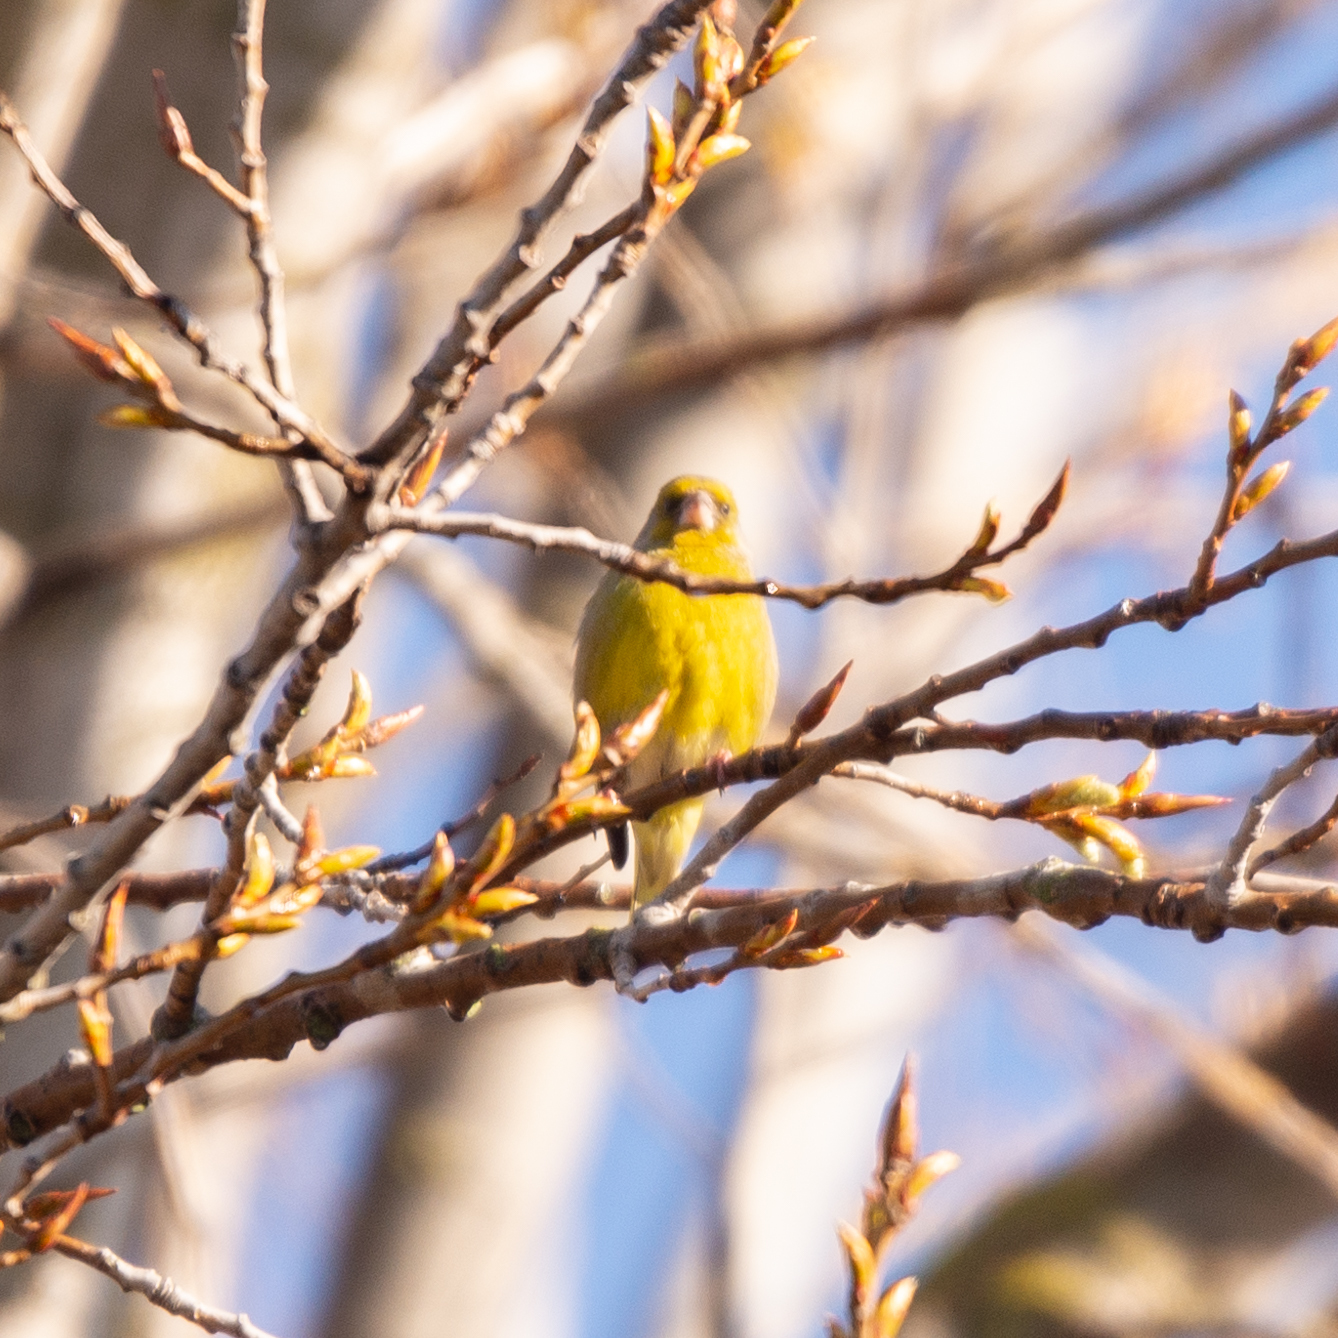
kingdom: Plantae
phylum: Tracheophyta
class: Liliopsida
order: Poales
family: Poaceae
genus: Chloris
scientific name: Chloris chloris
